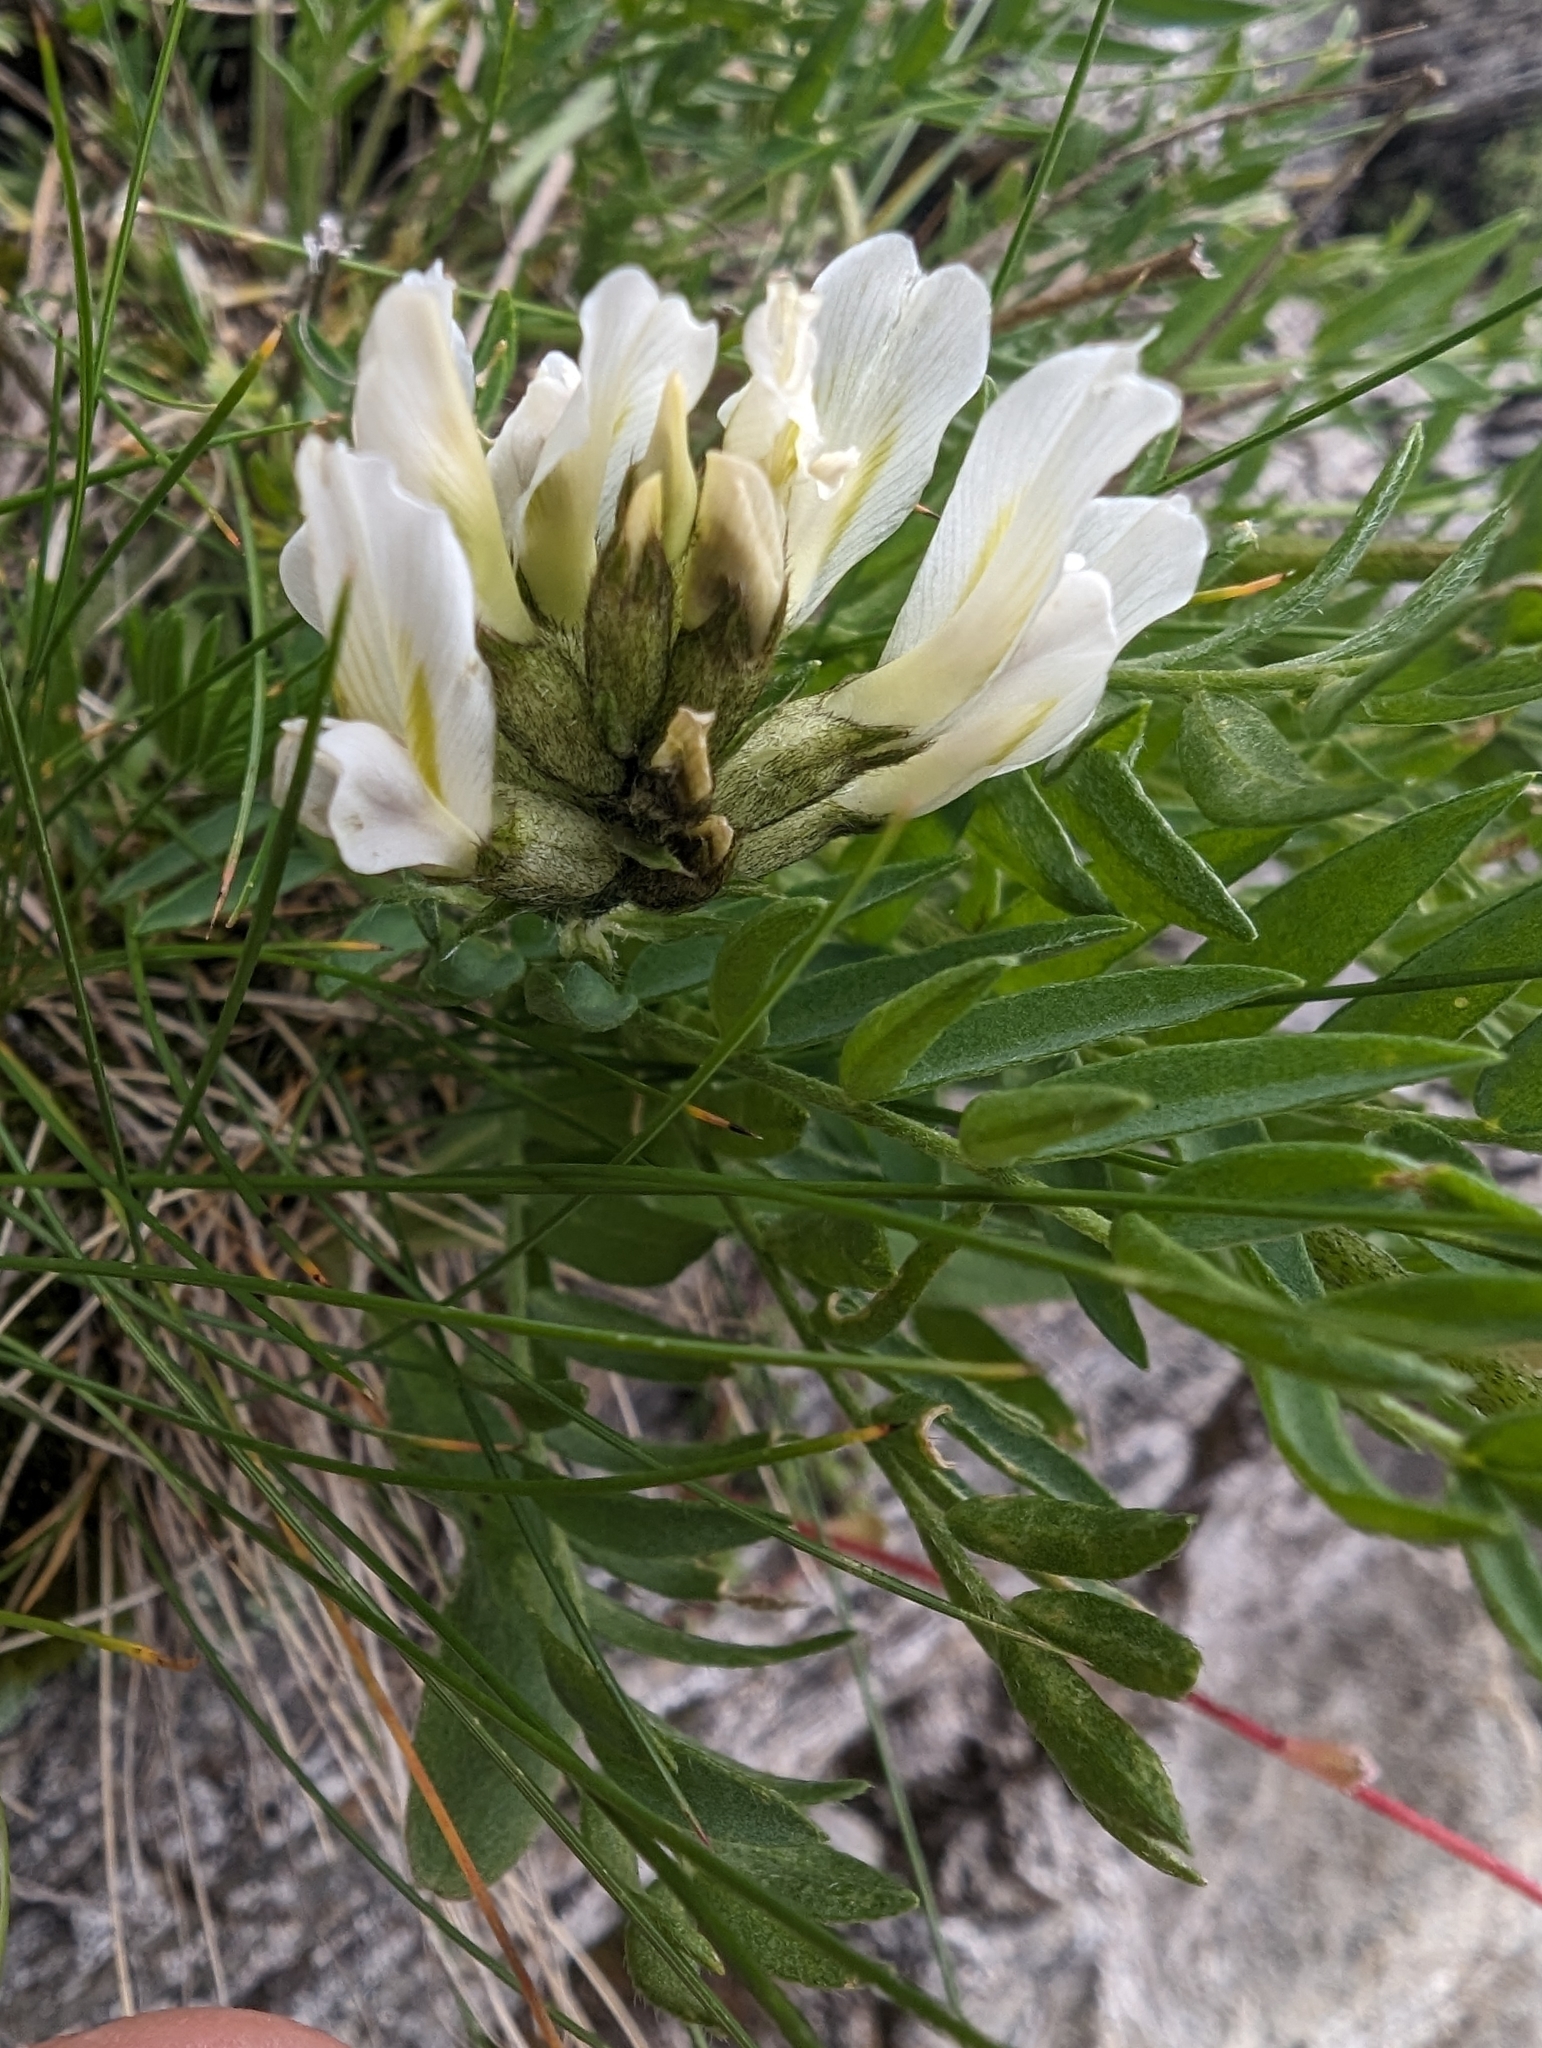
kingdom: Plantae
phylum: Tracheophyta
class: Magnoliopsida
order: Fabales
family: Fabaceae
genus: Oxytropis
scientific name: Oxytropis campestris
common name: Field locoweed
